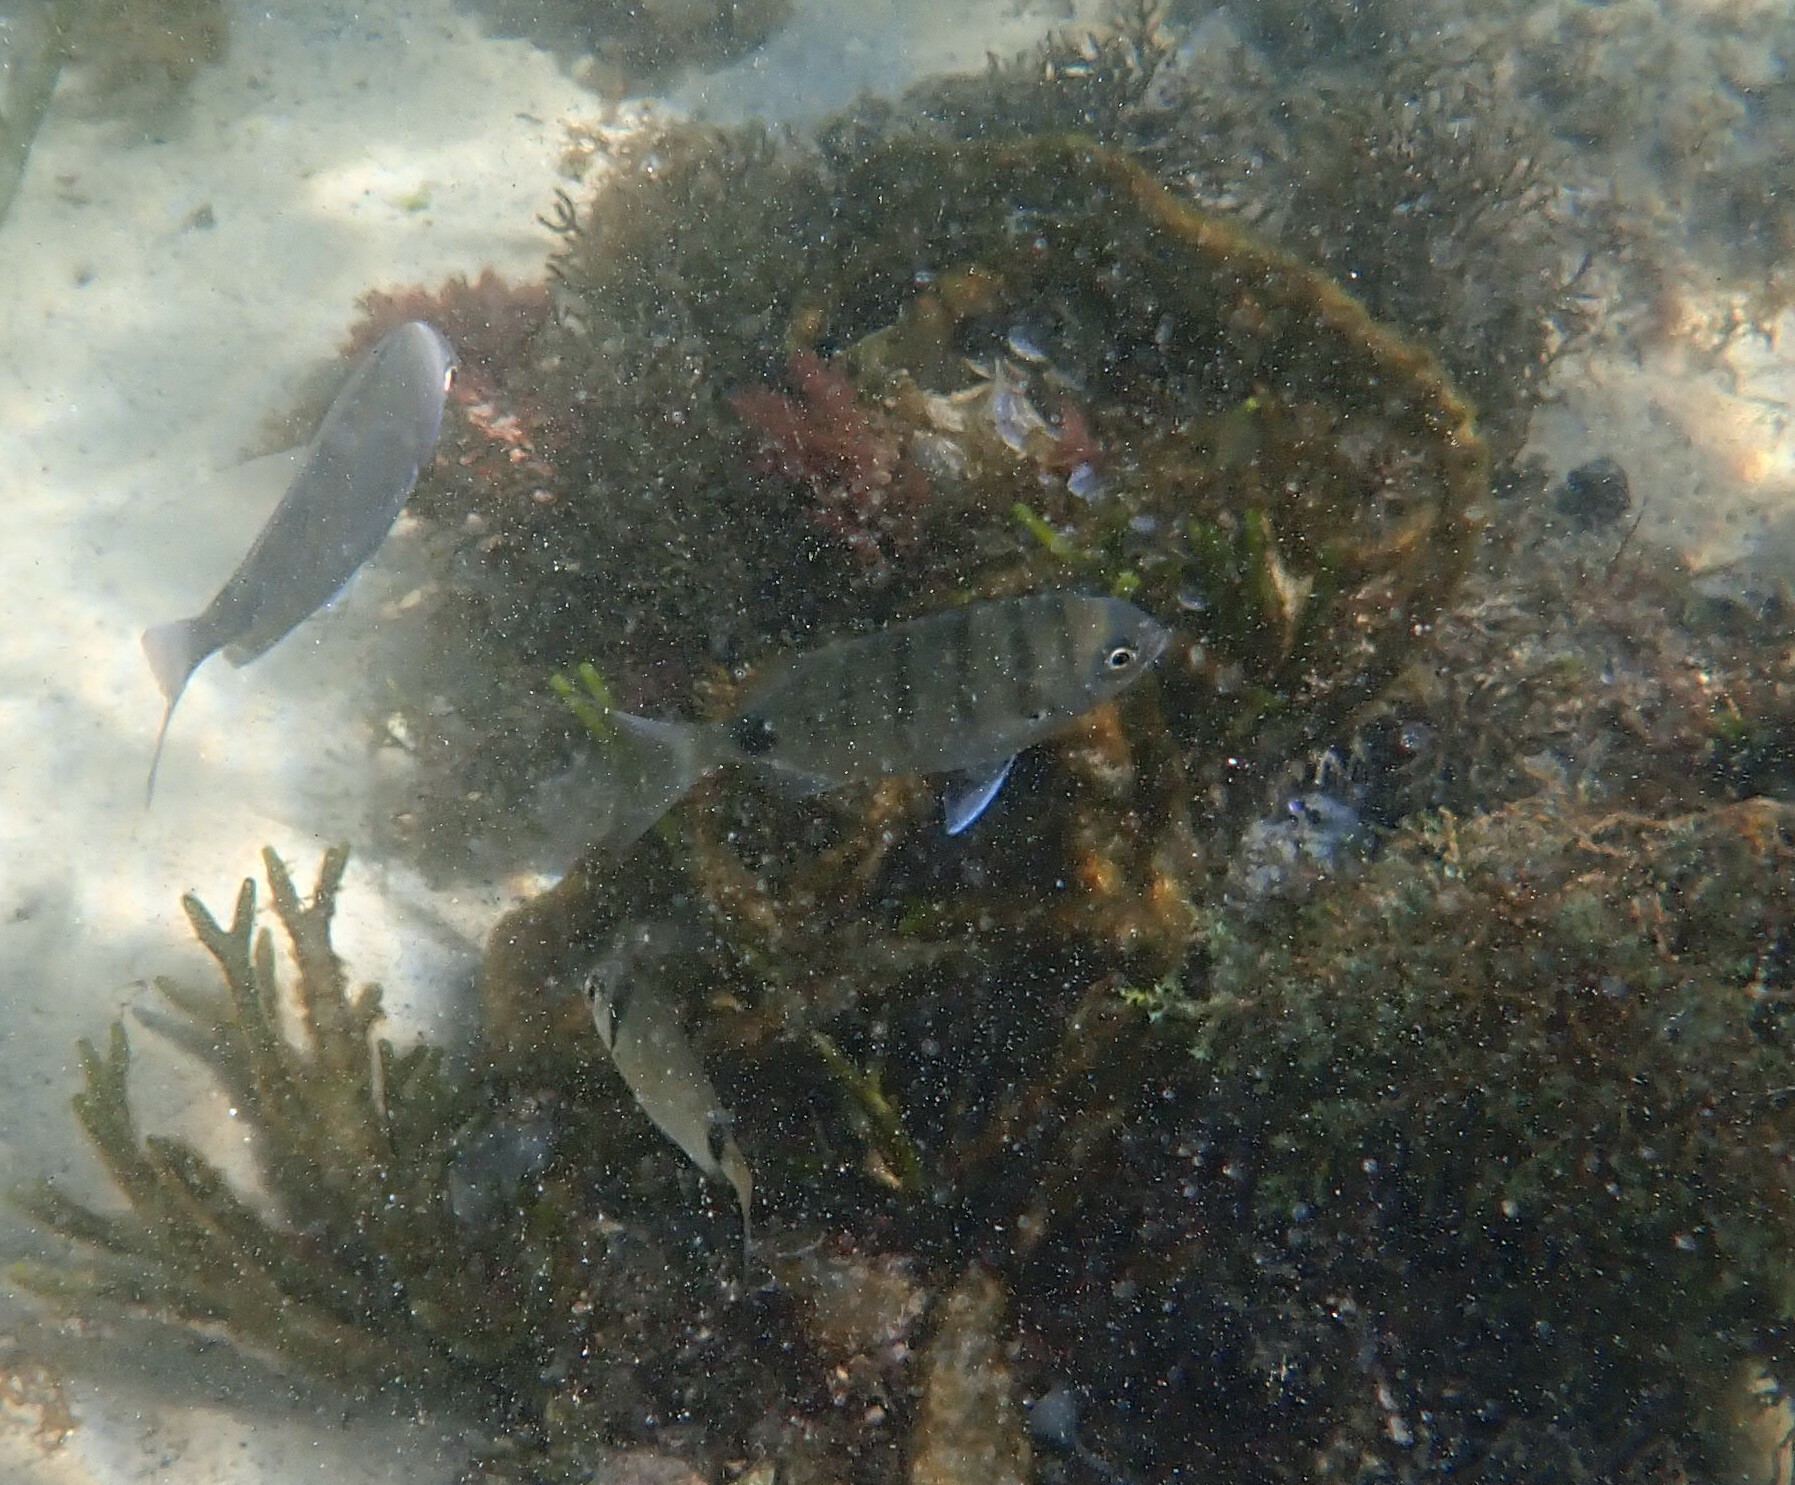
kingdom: Animalia
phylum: Chordata
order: Perciformes
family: Sparidae
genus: Diplodus
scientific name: Diplodus cadenati
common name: Moroccan white seabream
